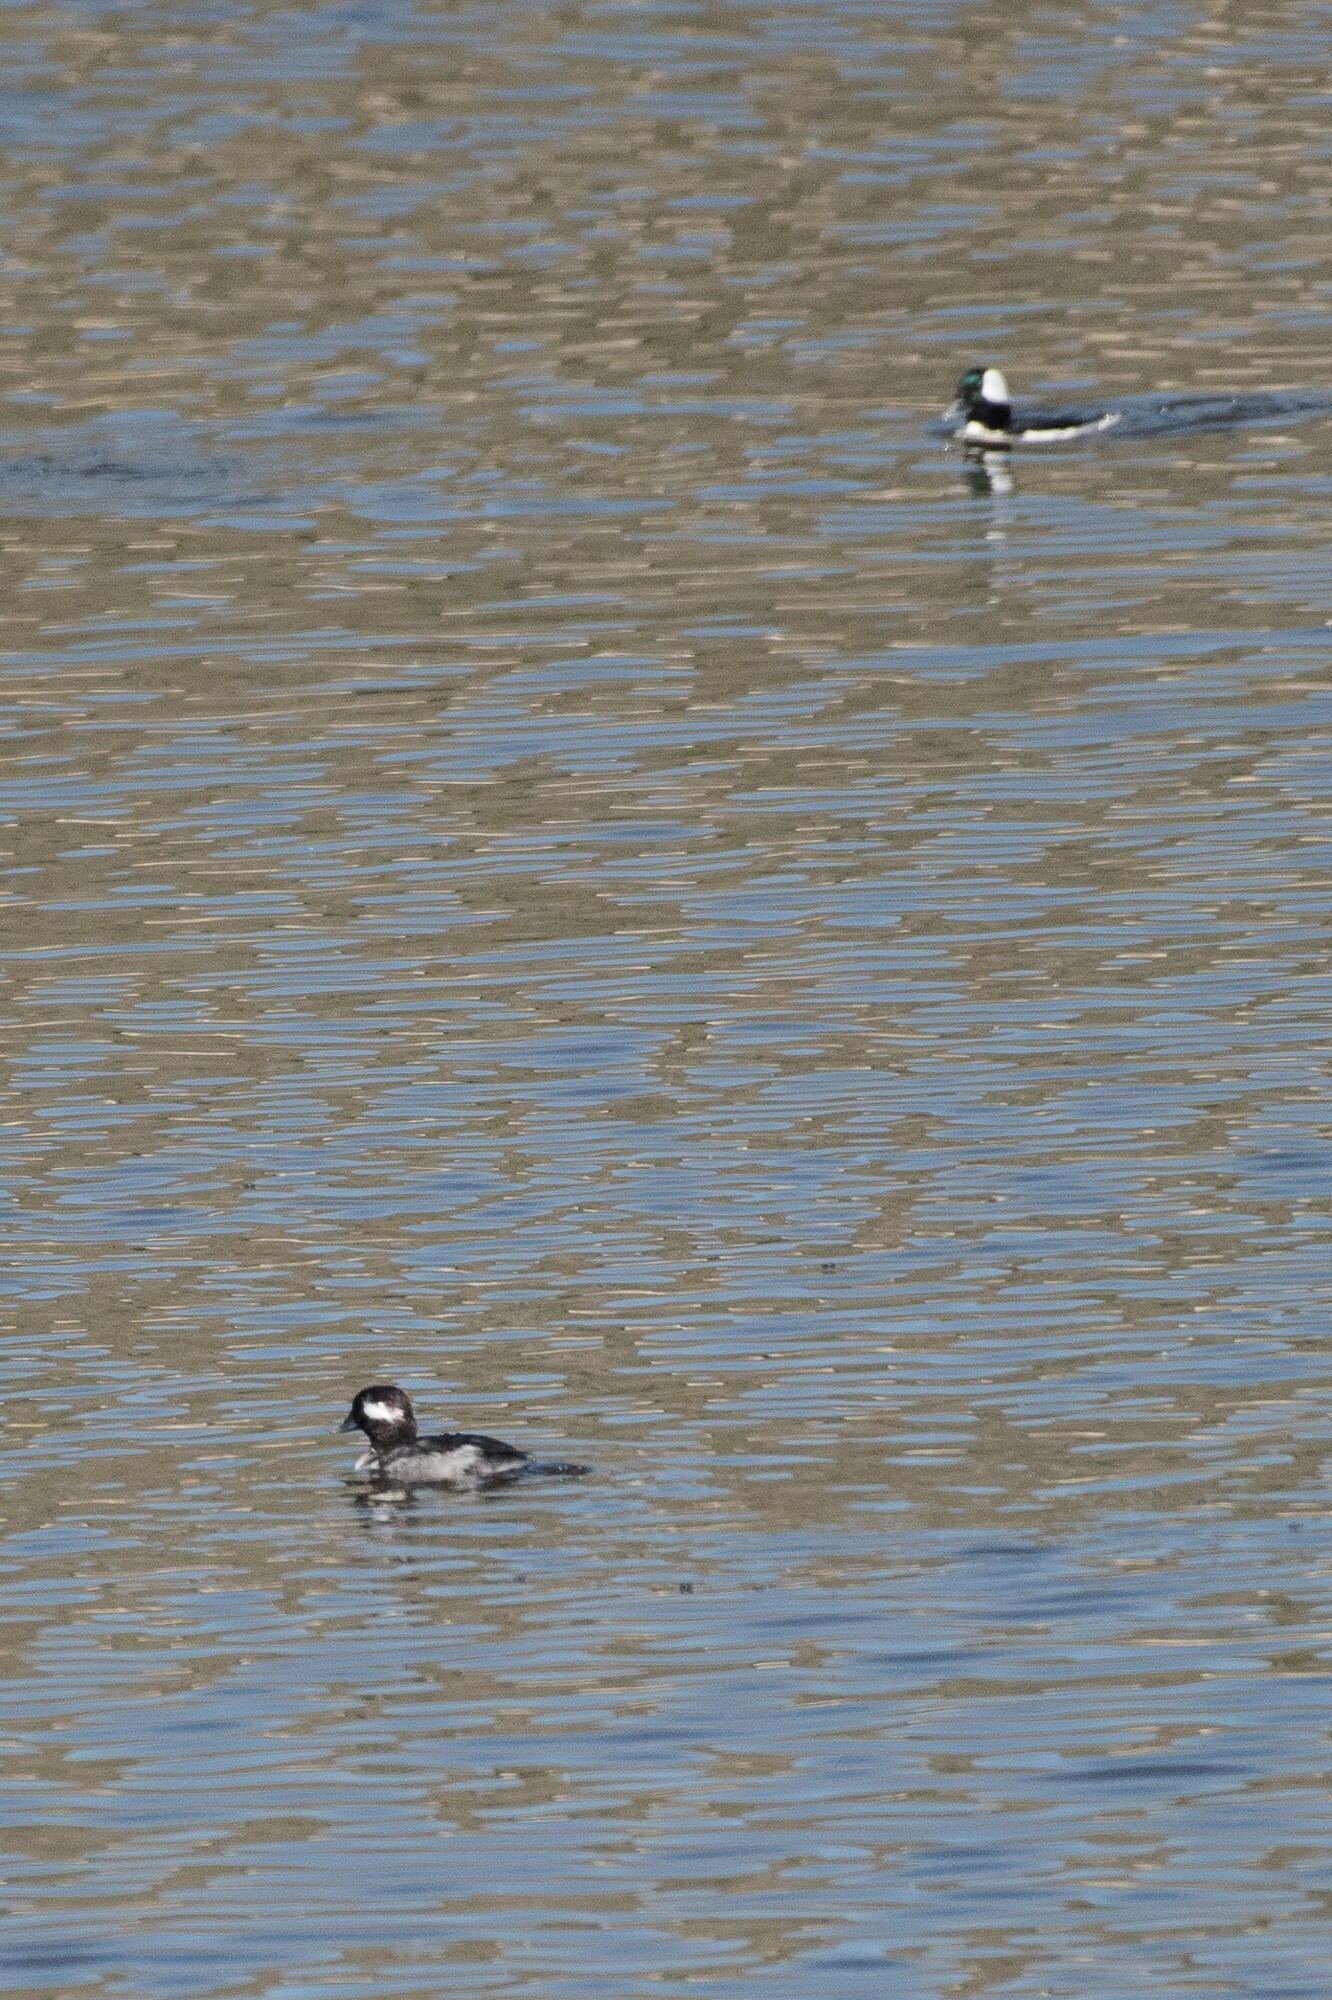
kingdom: Animalia
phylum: Chordata
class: Aves
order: Anseriformes
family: Anatidae
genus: Bucephala
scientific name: Bucephala albeola
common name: Bufflehead
